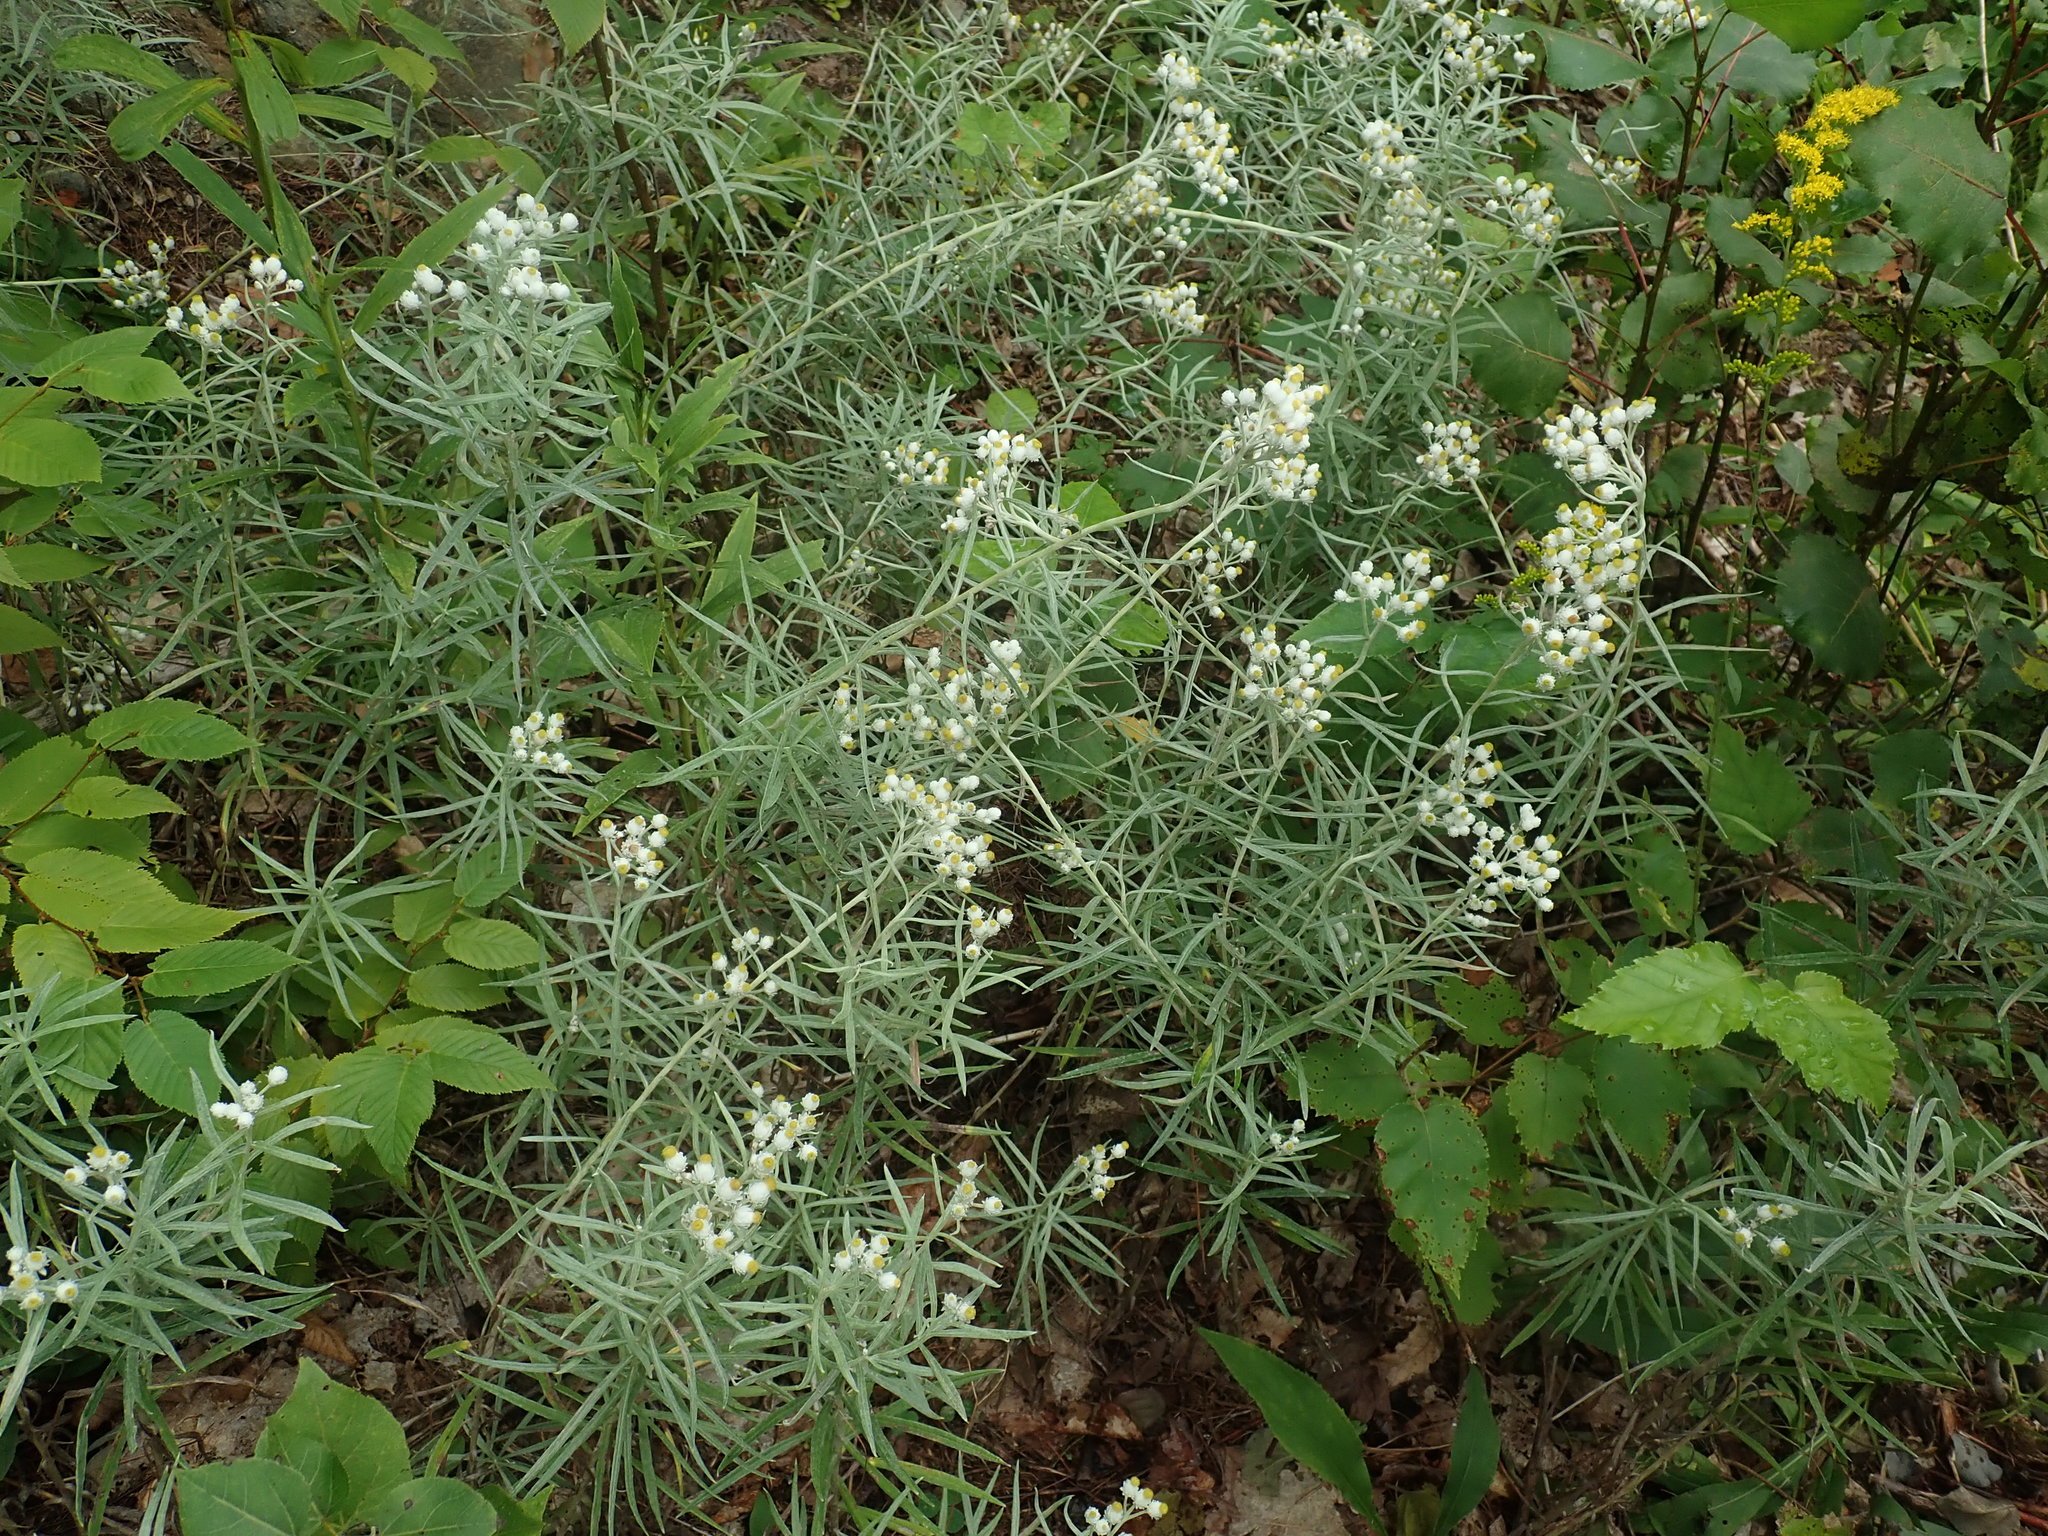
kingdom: Plantae
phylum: Tracheophyta
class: Magnoliopsida
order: Asterales
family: Asteraceae
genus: Anaphalis
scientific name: Anaphalis margaritacea
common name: Pearly everlasting
